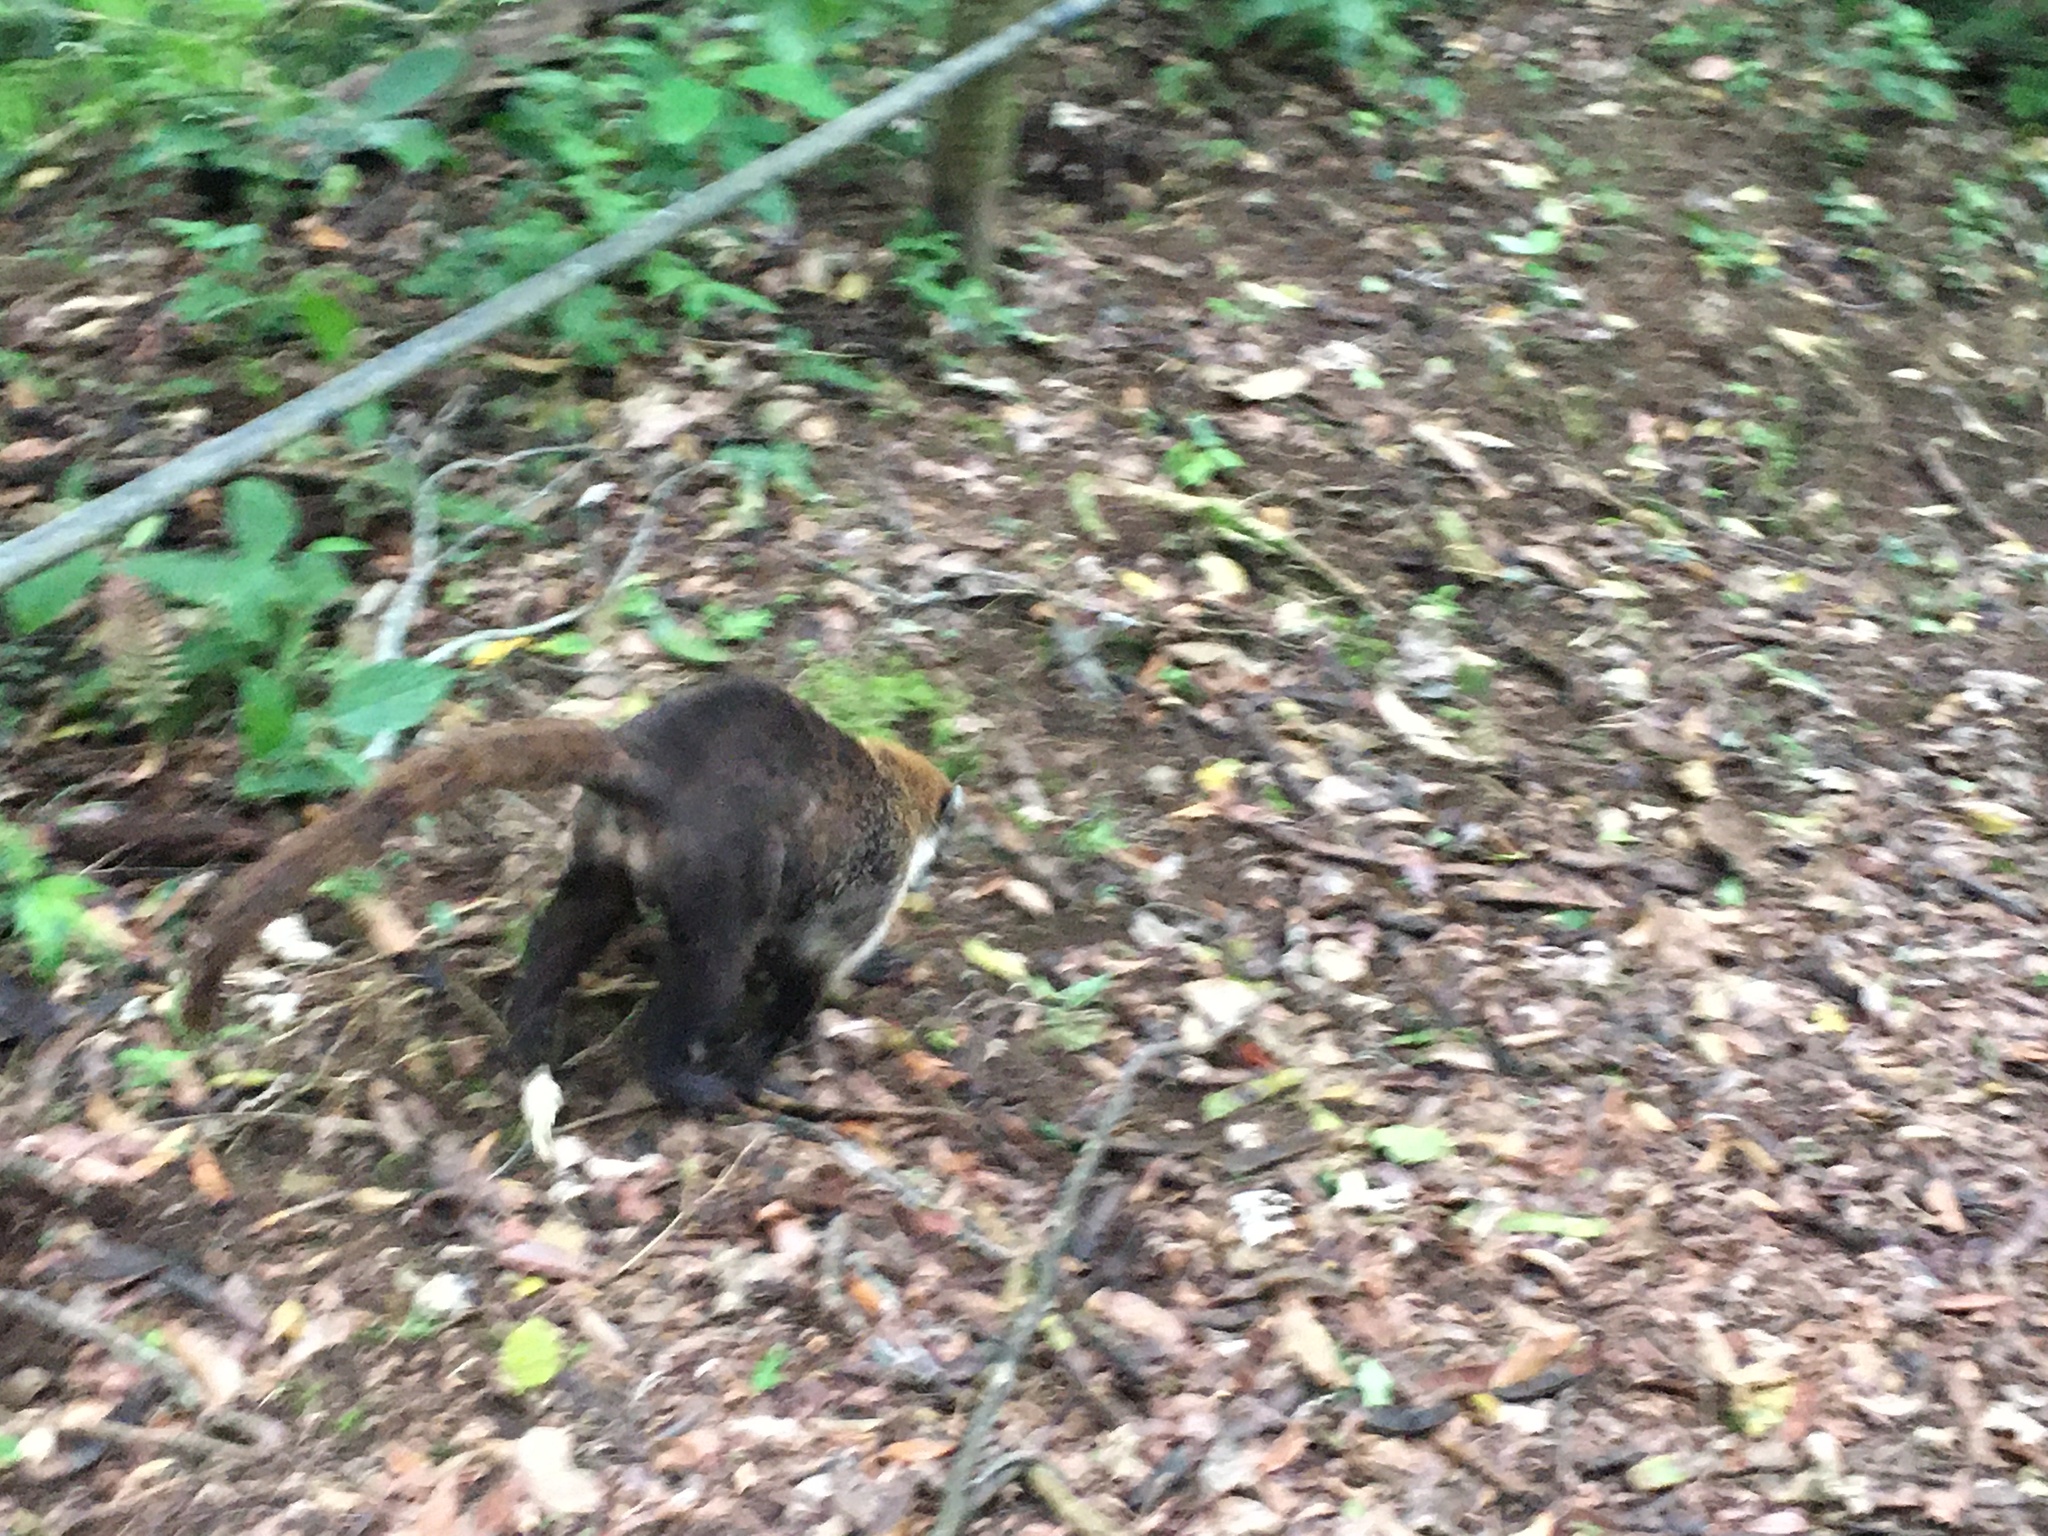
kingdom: Animalia
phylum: Chordata
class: Mammalia
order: Carnivora
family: Procyonidae
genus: Nasua
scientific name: Nasua narica
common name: White-nosed coati
